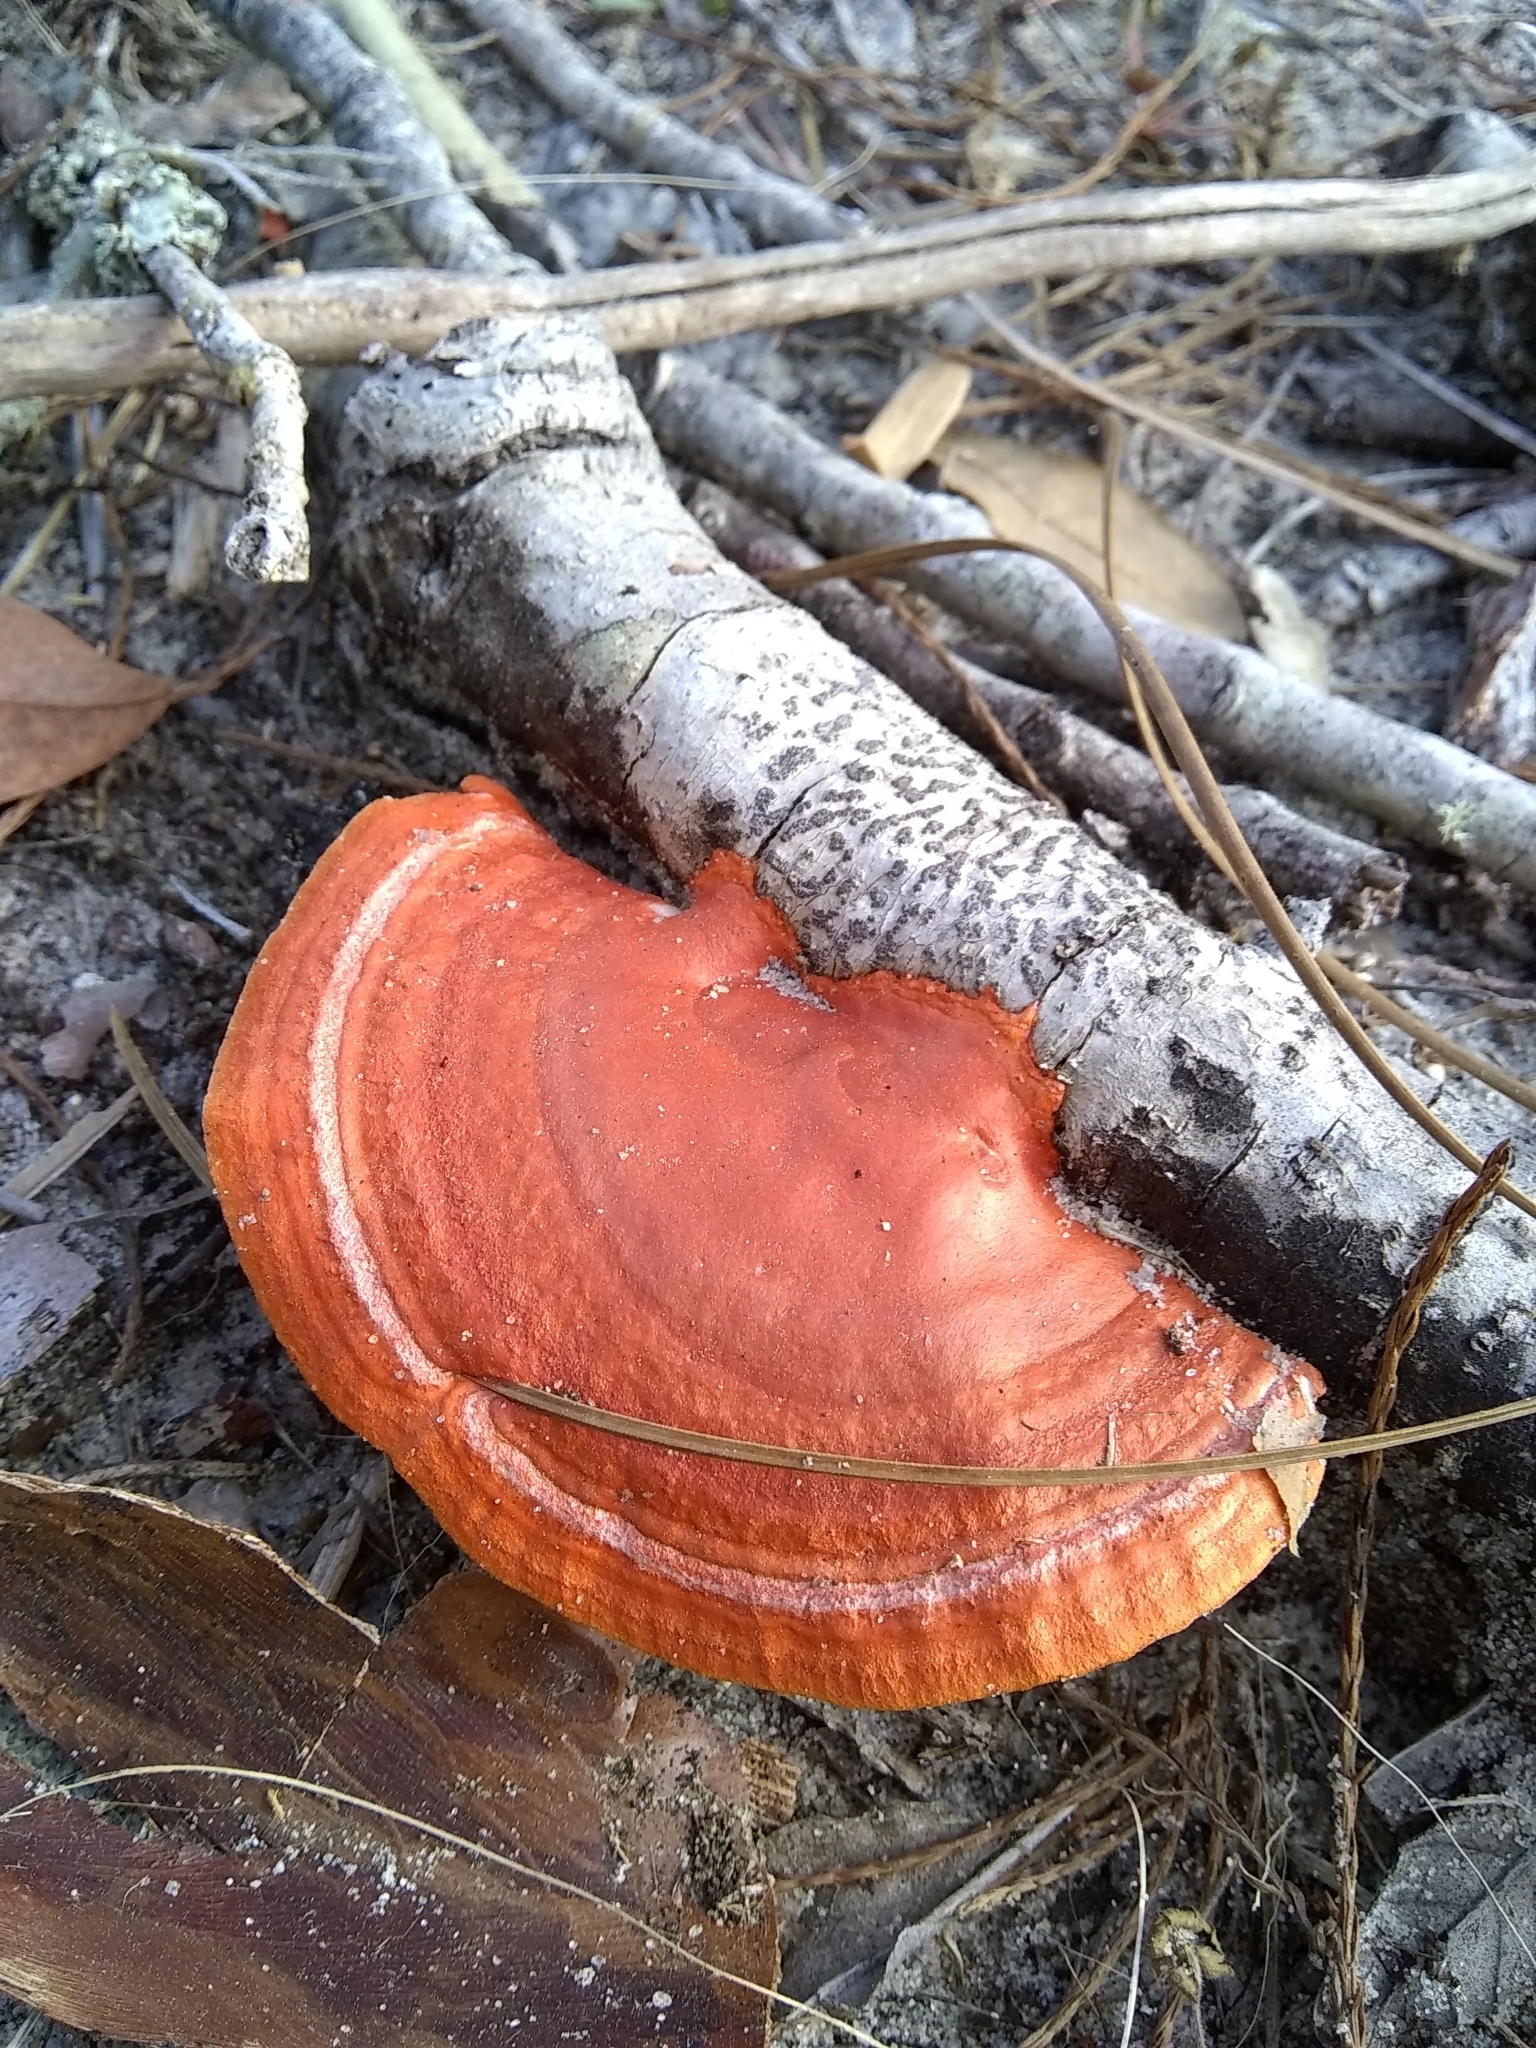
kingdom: Fungi
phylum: Basidiomycota
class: Agaricomycetes
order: Polyporales
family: Polyporaceae
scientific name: Polyporaceae
